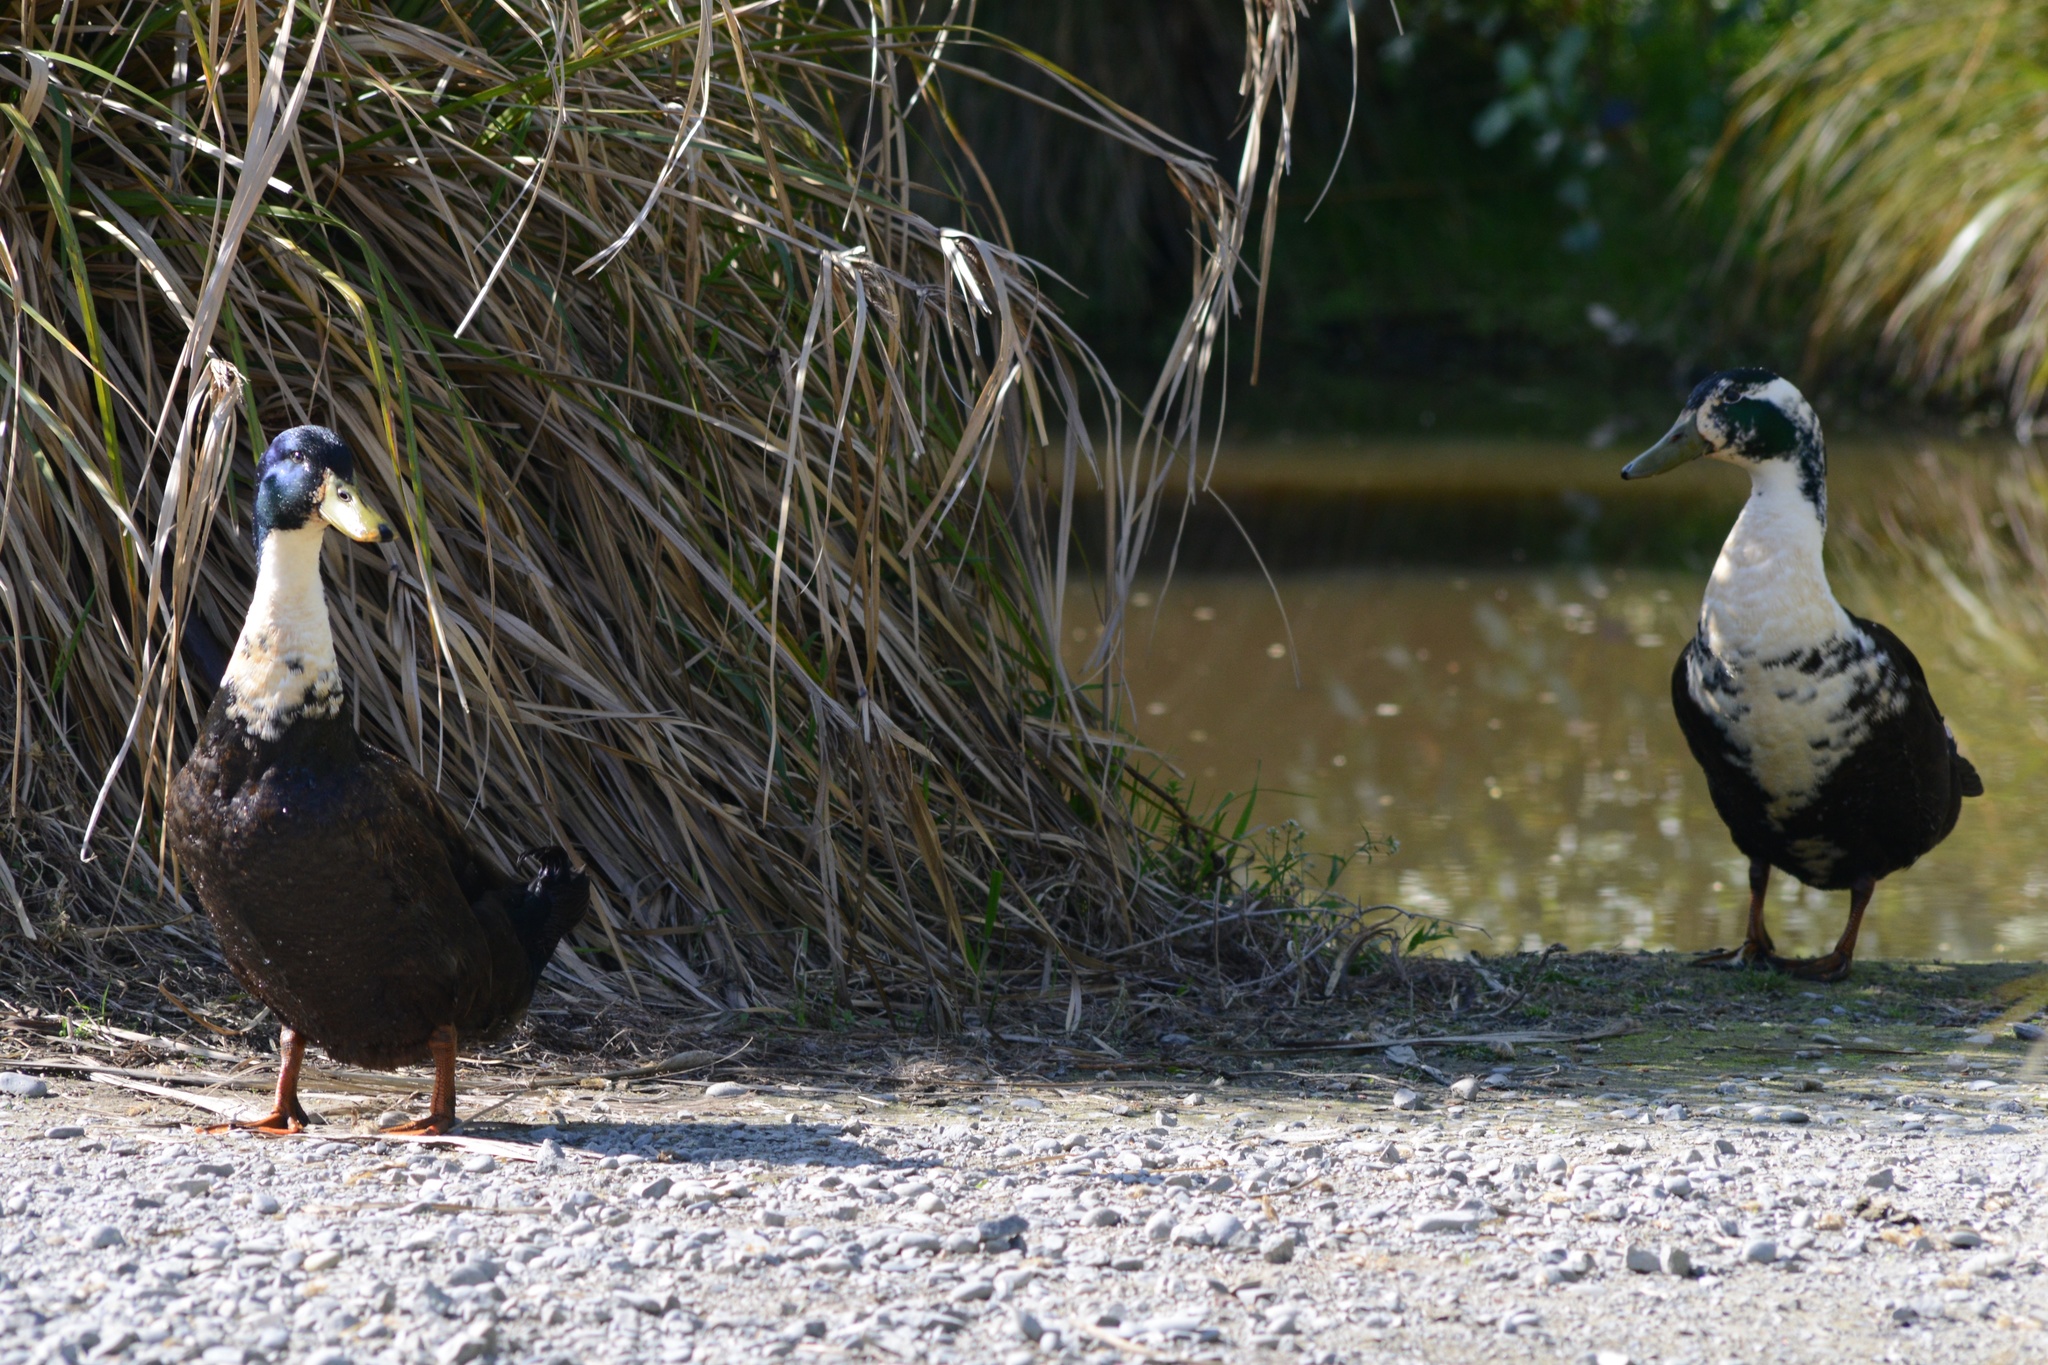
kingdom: Animalia
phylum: Chordata
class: Aves
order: Anseriformes
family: Anatidae
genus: Anas
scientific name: Anas platyrhynchos
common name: Mallard
